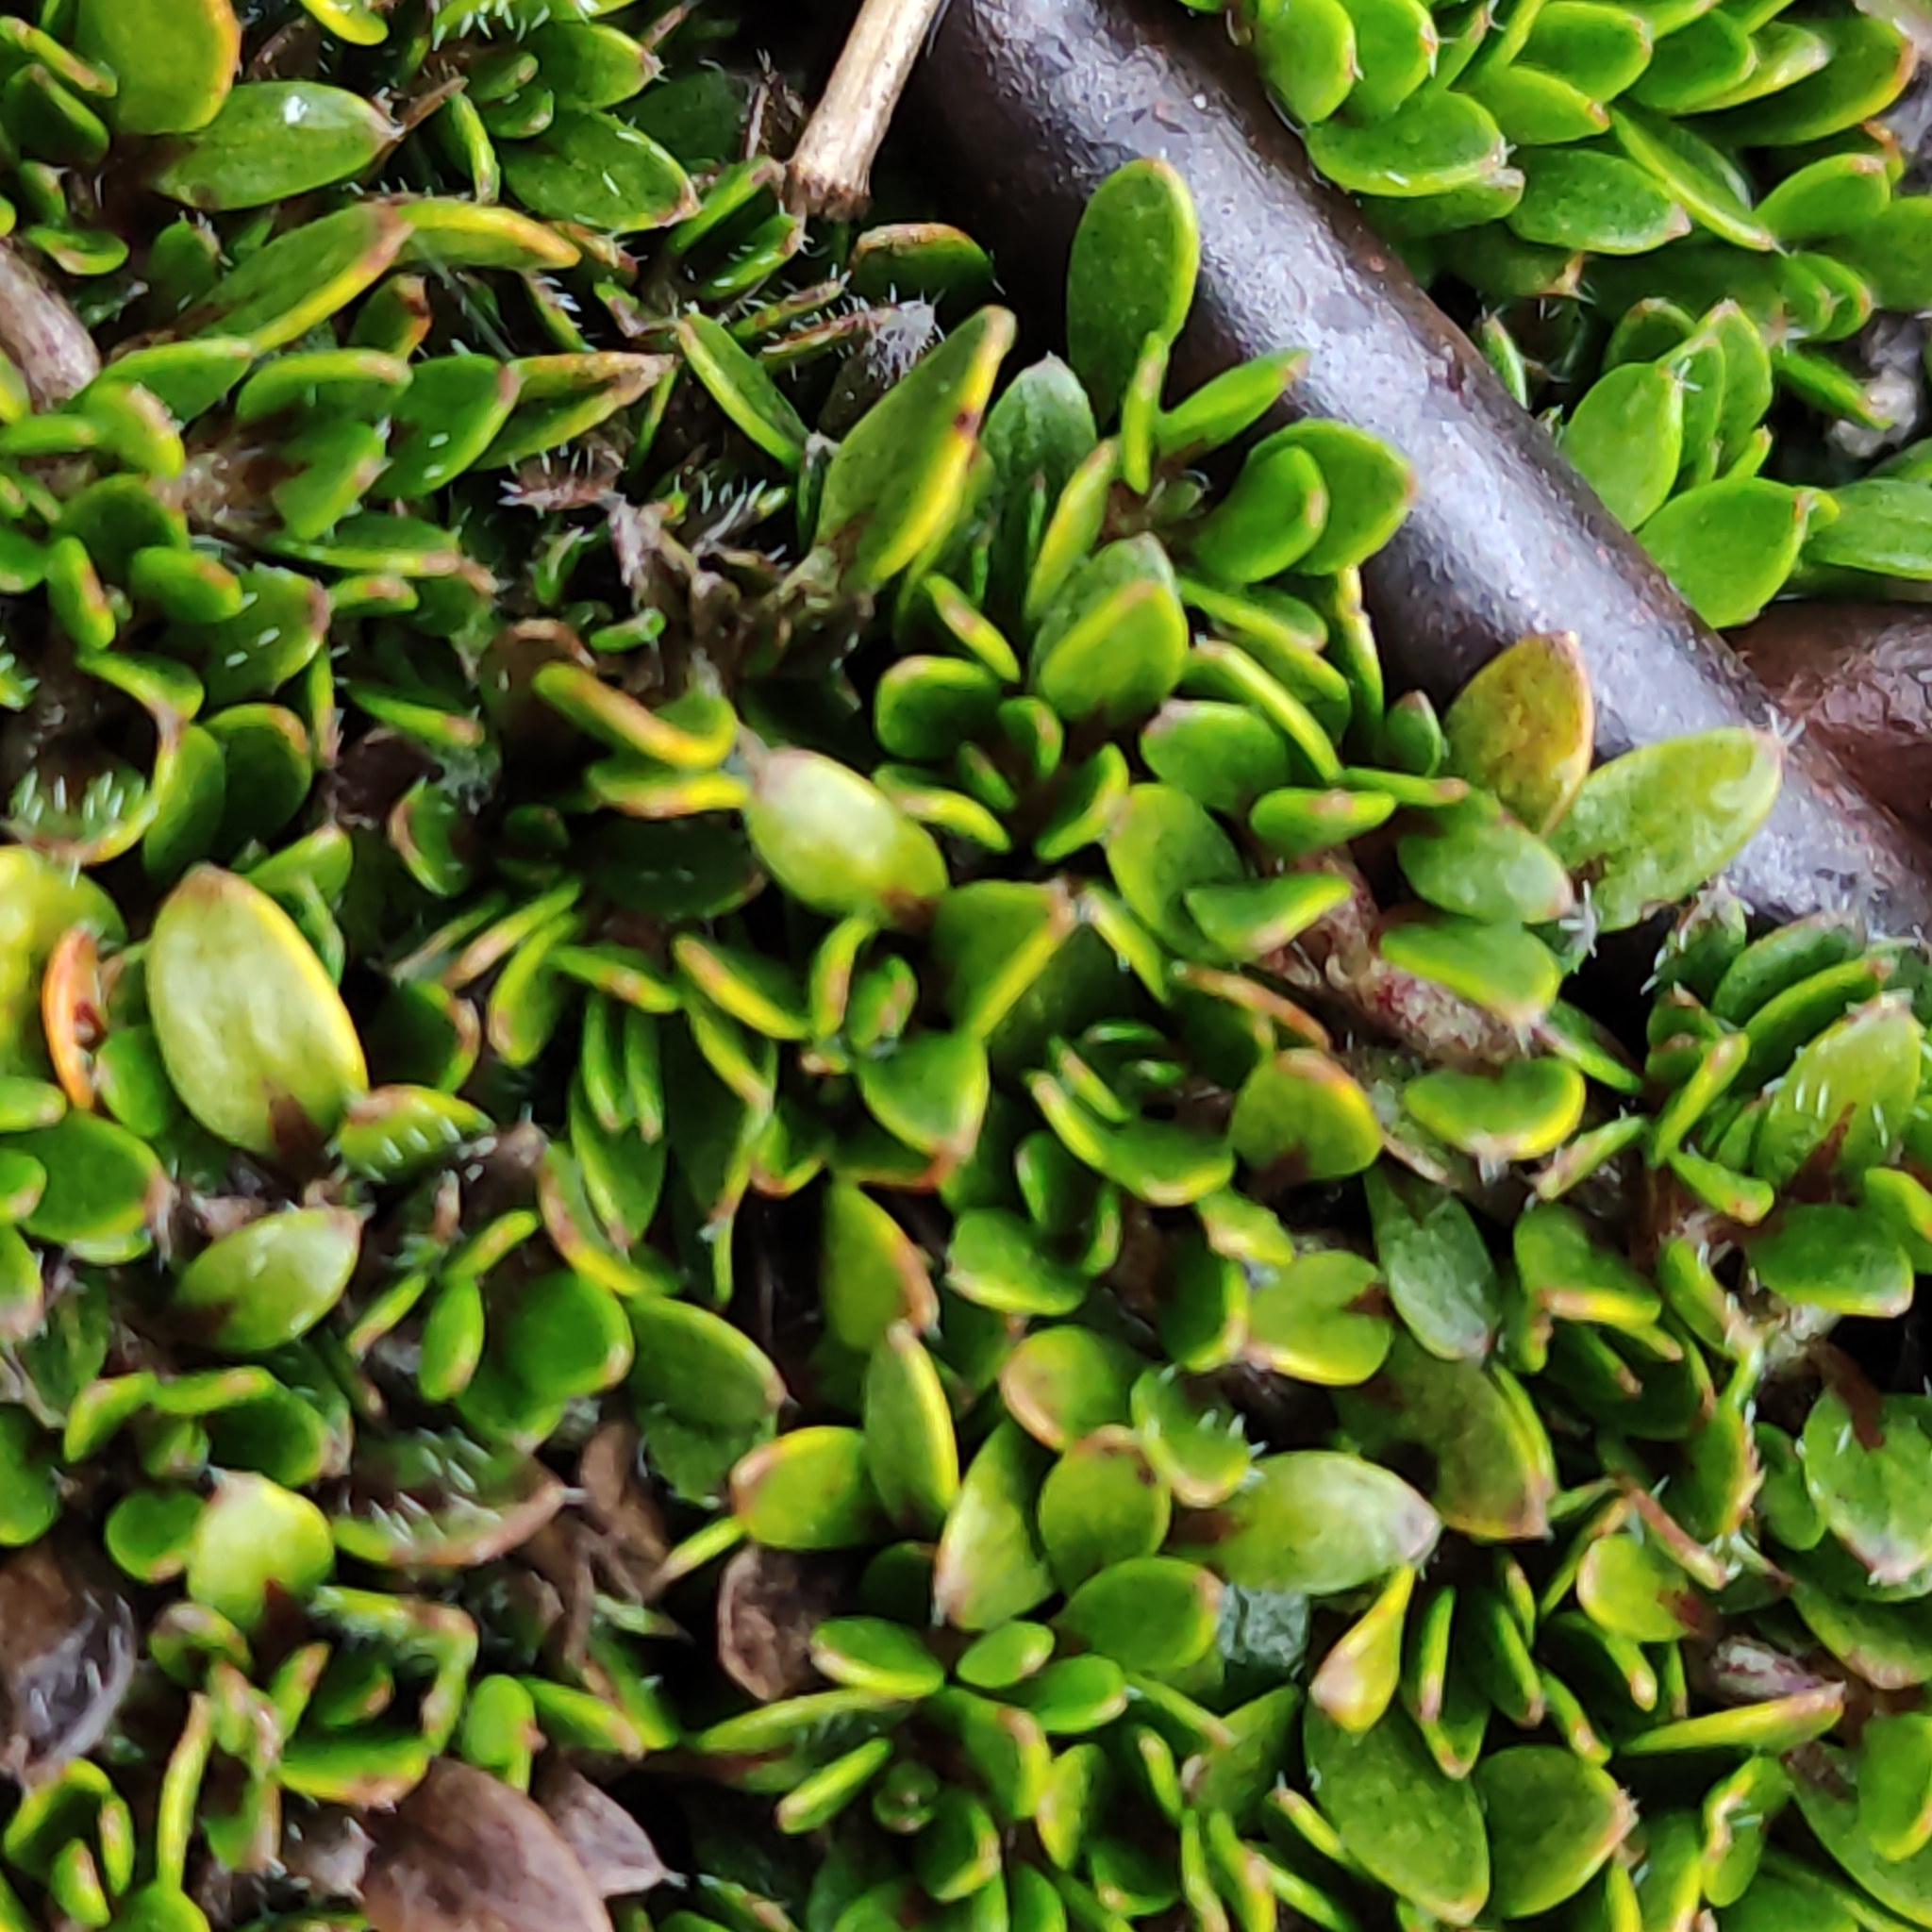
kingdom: Plantae
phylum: Tracheophyta
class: Magnoliopsida
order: Gentianales
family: Rubiaceae
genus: Coprosma
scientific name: Coprosma atropurpurea
